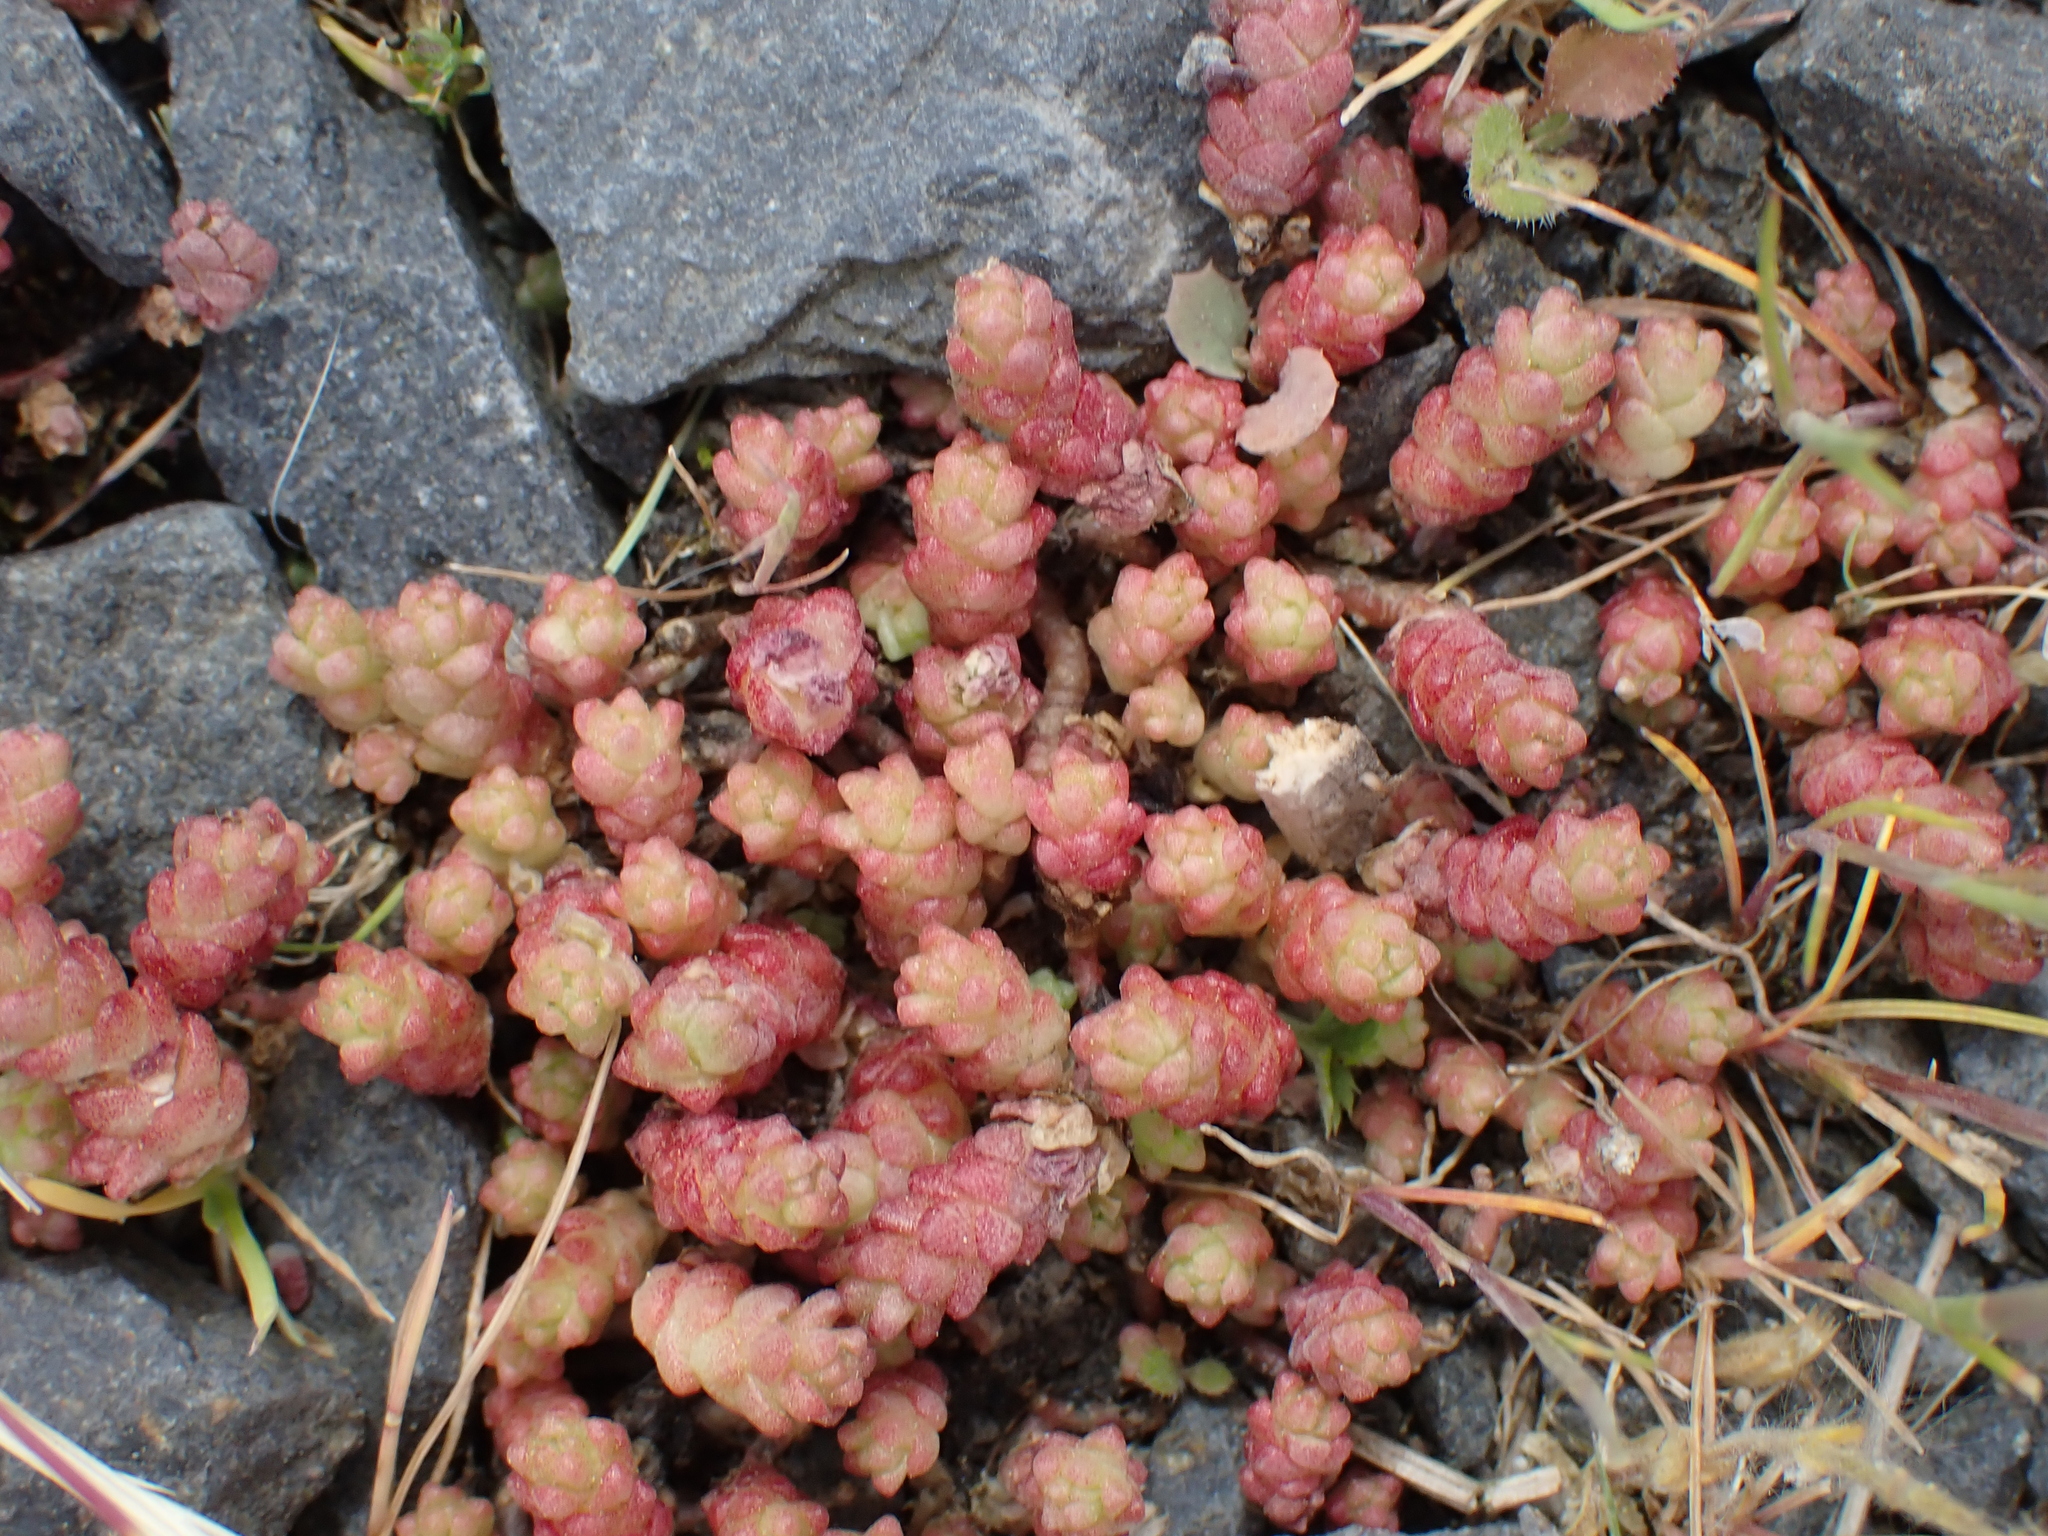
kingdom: Plantae
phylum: Tracheophyta
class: Magnoliopsida
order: Saxifragales
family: Crassulaceae
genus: Sedum
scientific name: Sedum acre
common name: Biting stonecrop
